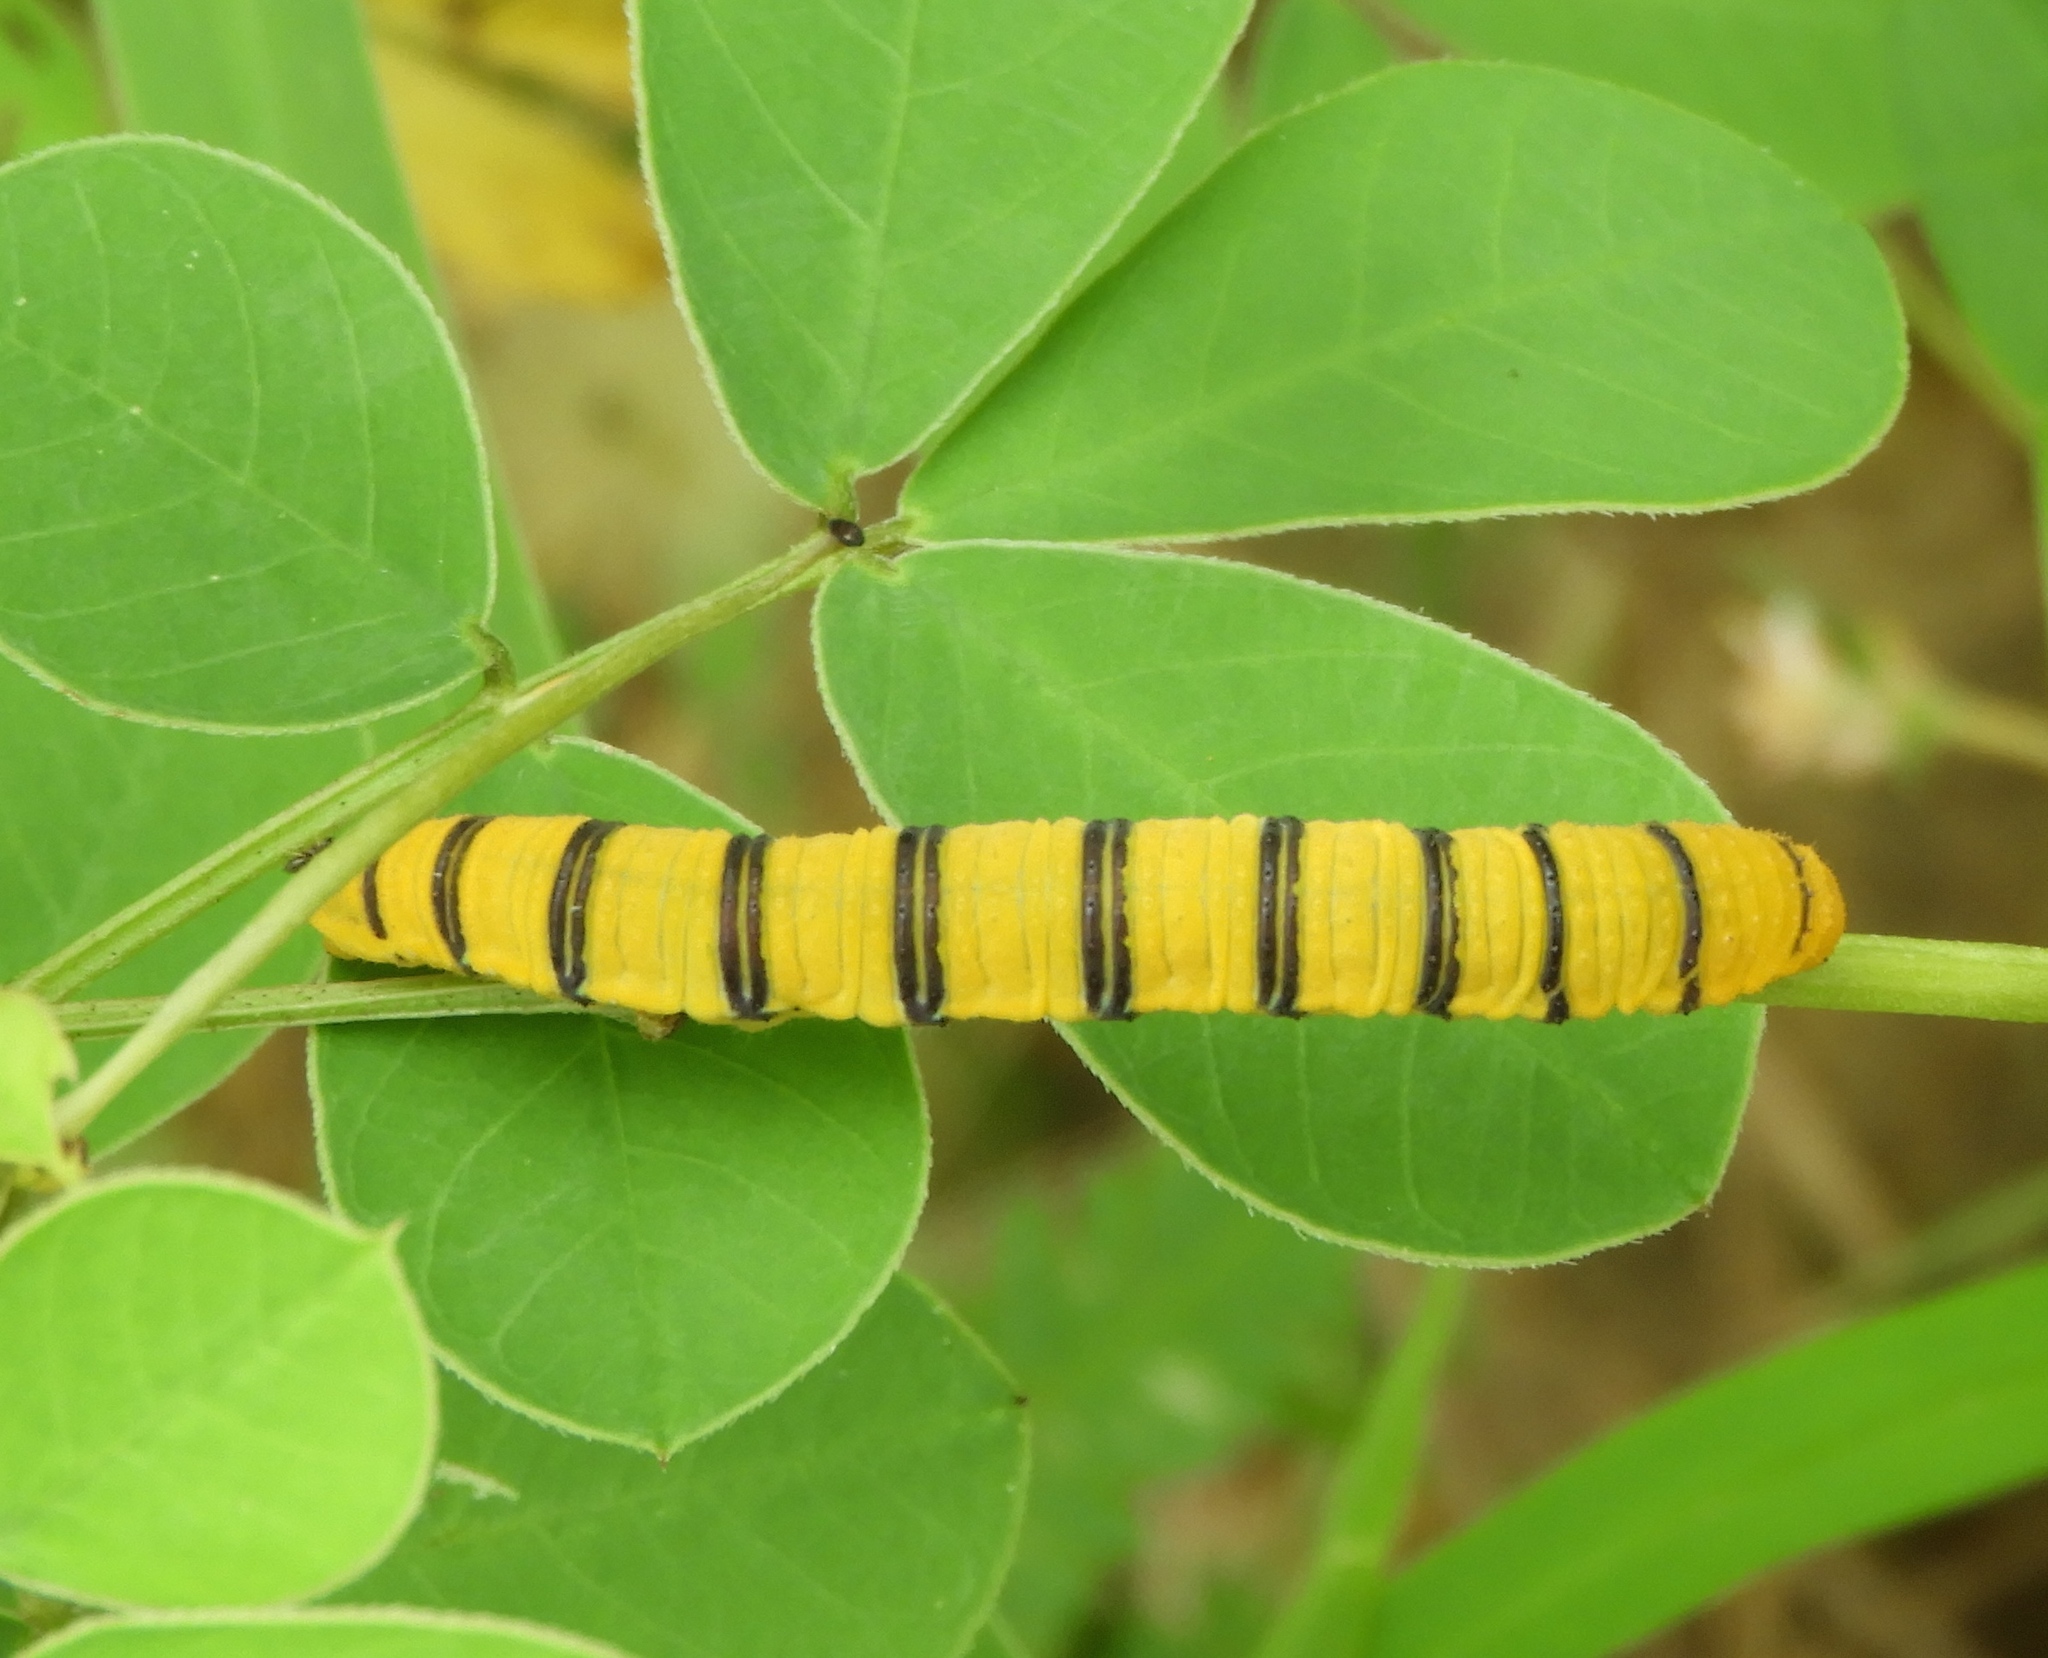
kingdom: Animalia
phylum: Arthropoda
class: Insecta
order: Lepidoptera
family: Pieridae
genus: Phoebis
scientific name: Phoebis marcellina
